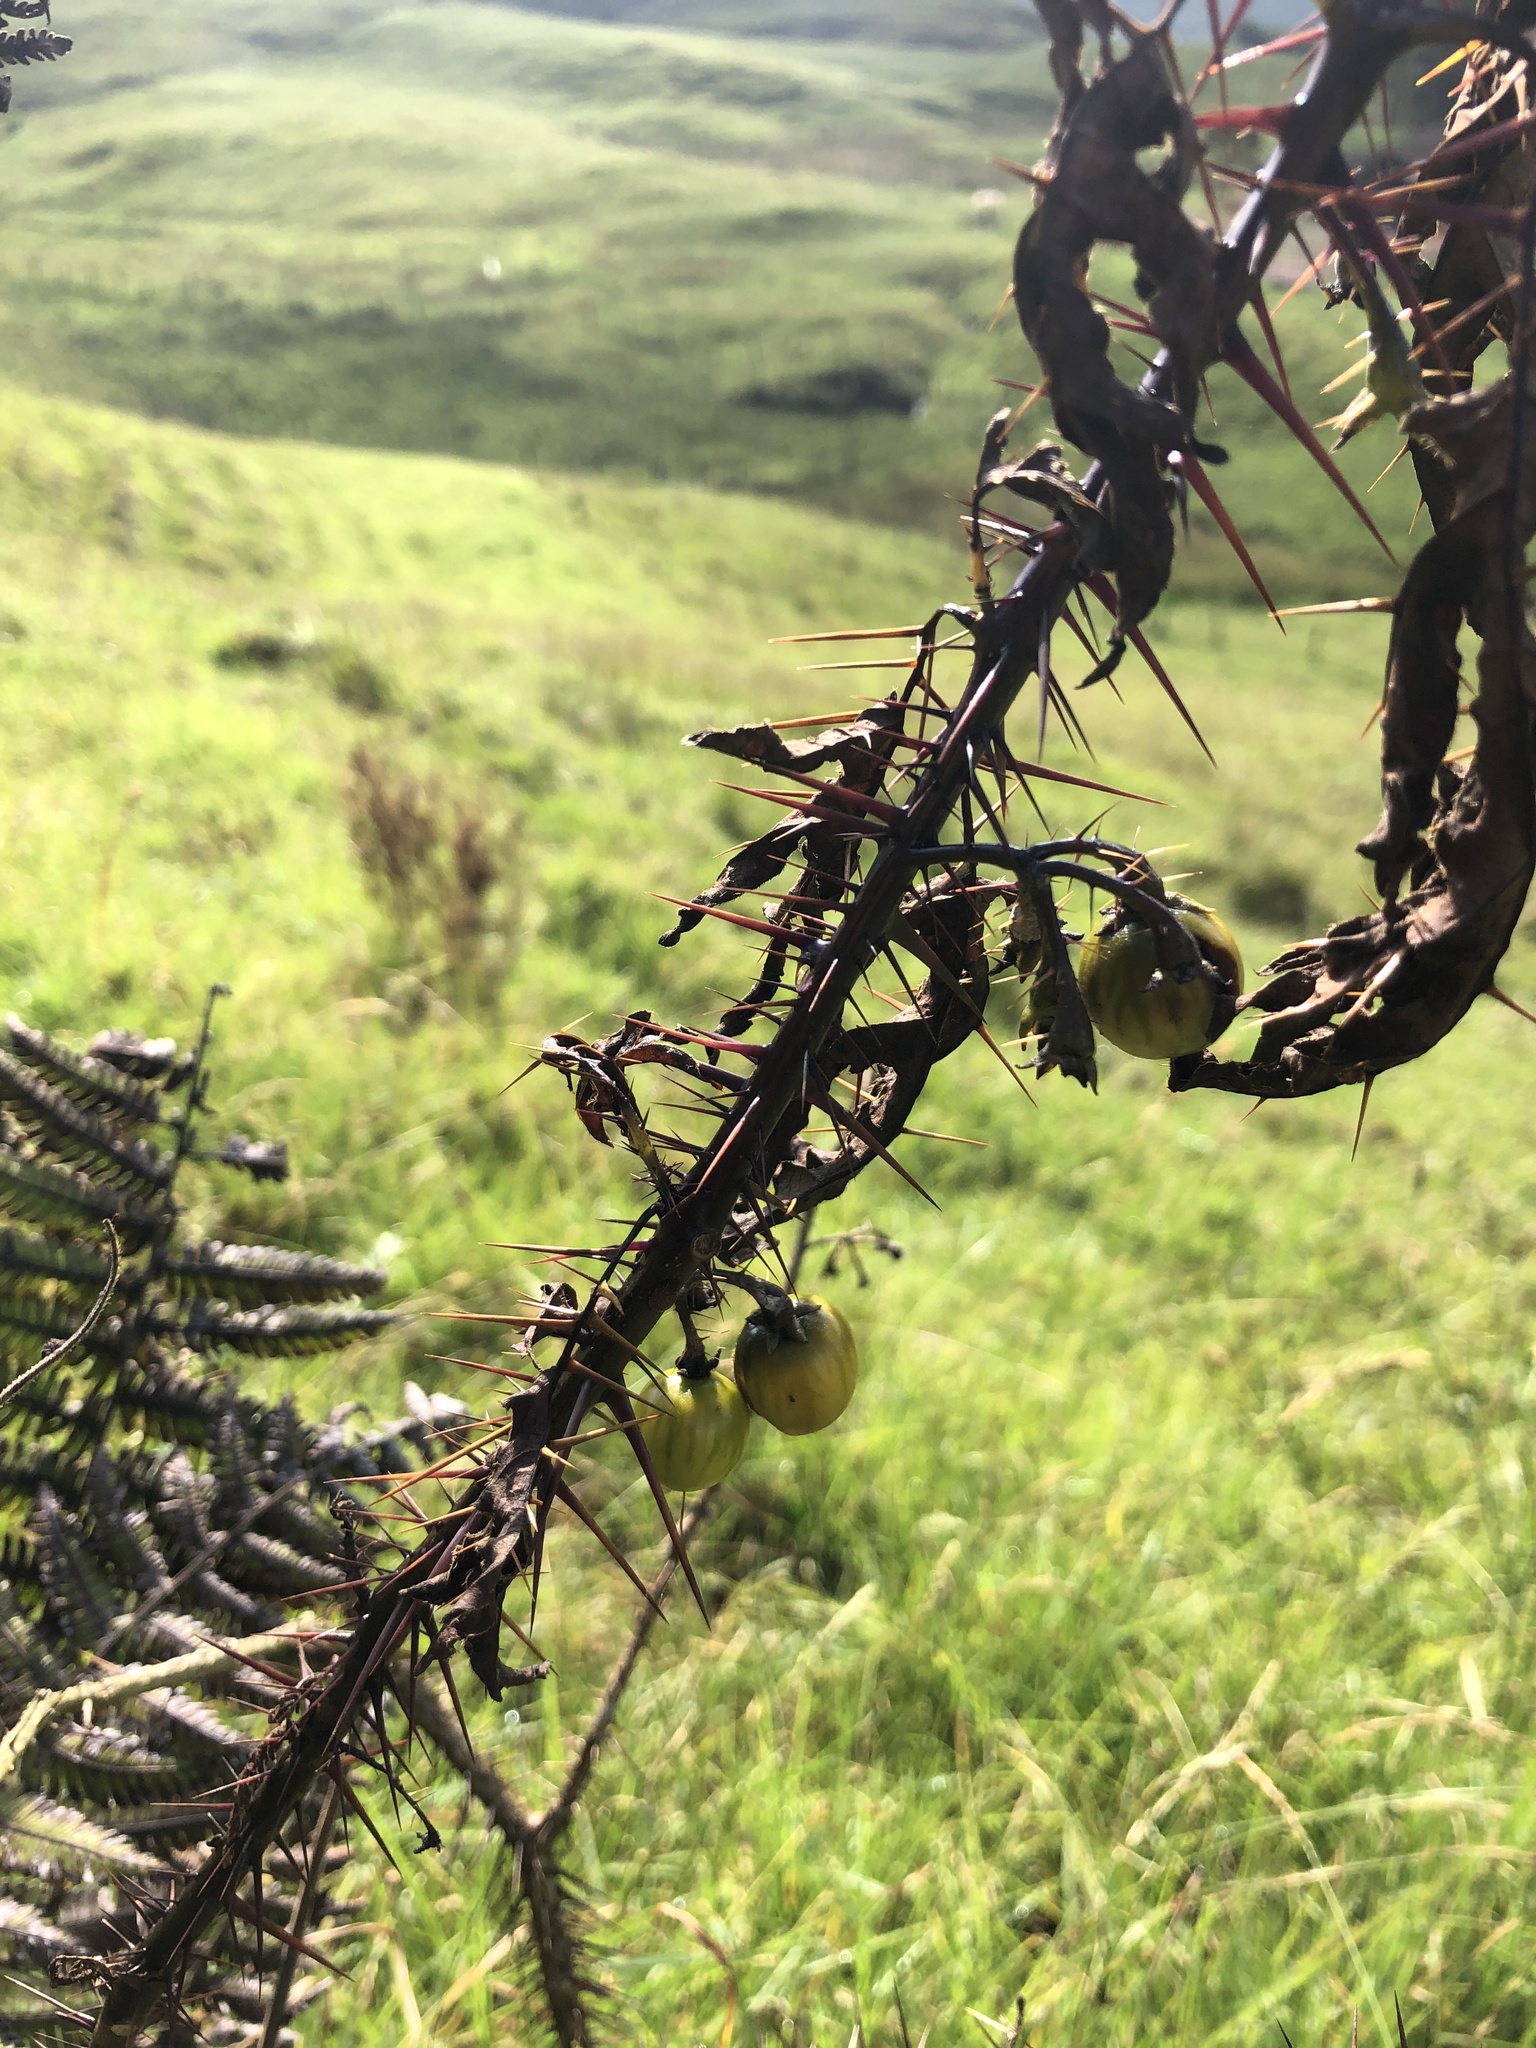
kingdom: Plantae
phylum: Tracheophyta
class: Magnoliopsida
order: Solanales
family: Solanaceae
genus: Solanum
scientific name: Solanum atropurpureum
